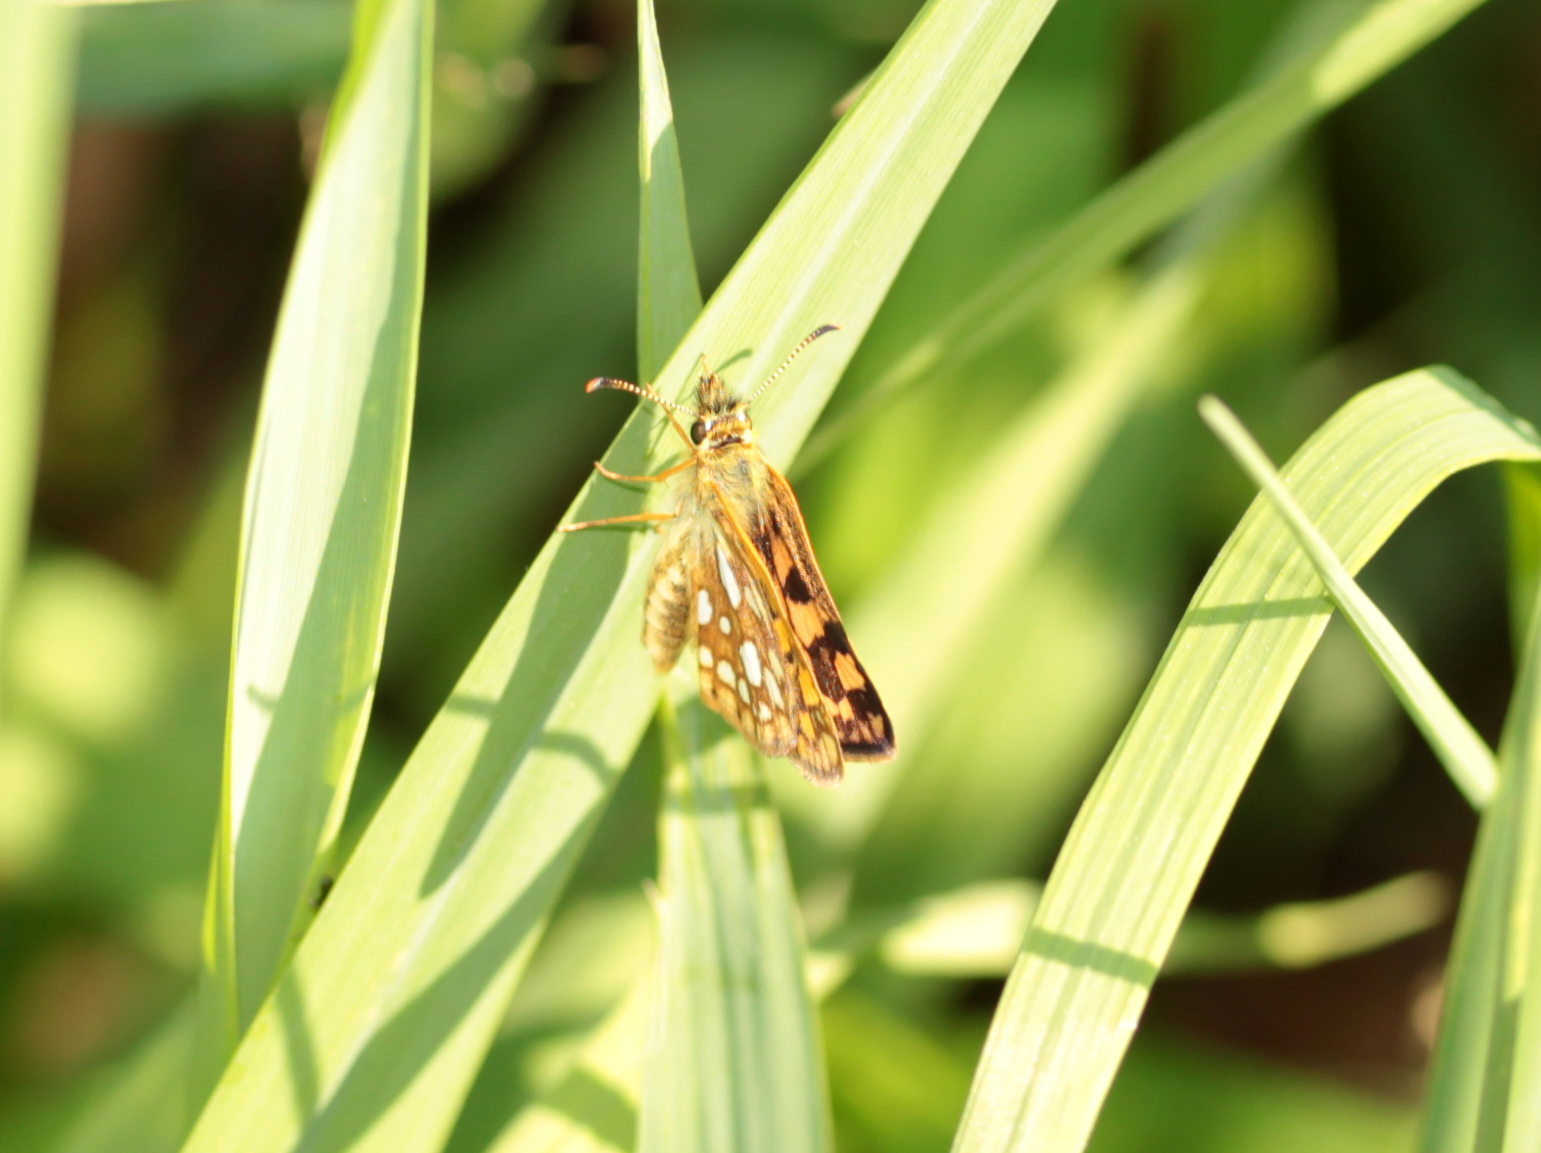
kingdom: Animalia
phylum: Arthropoda
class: Insecta
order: Lepidoptera
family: Hesperiidae
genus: Carterocephalus
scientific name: Carterocephalus mandan
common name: Arctic skipperling
